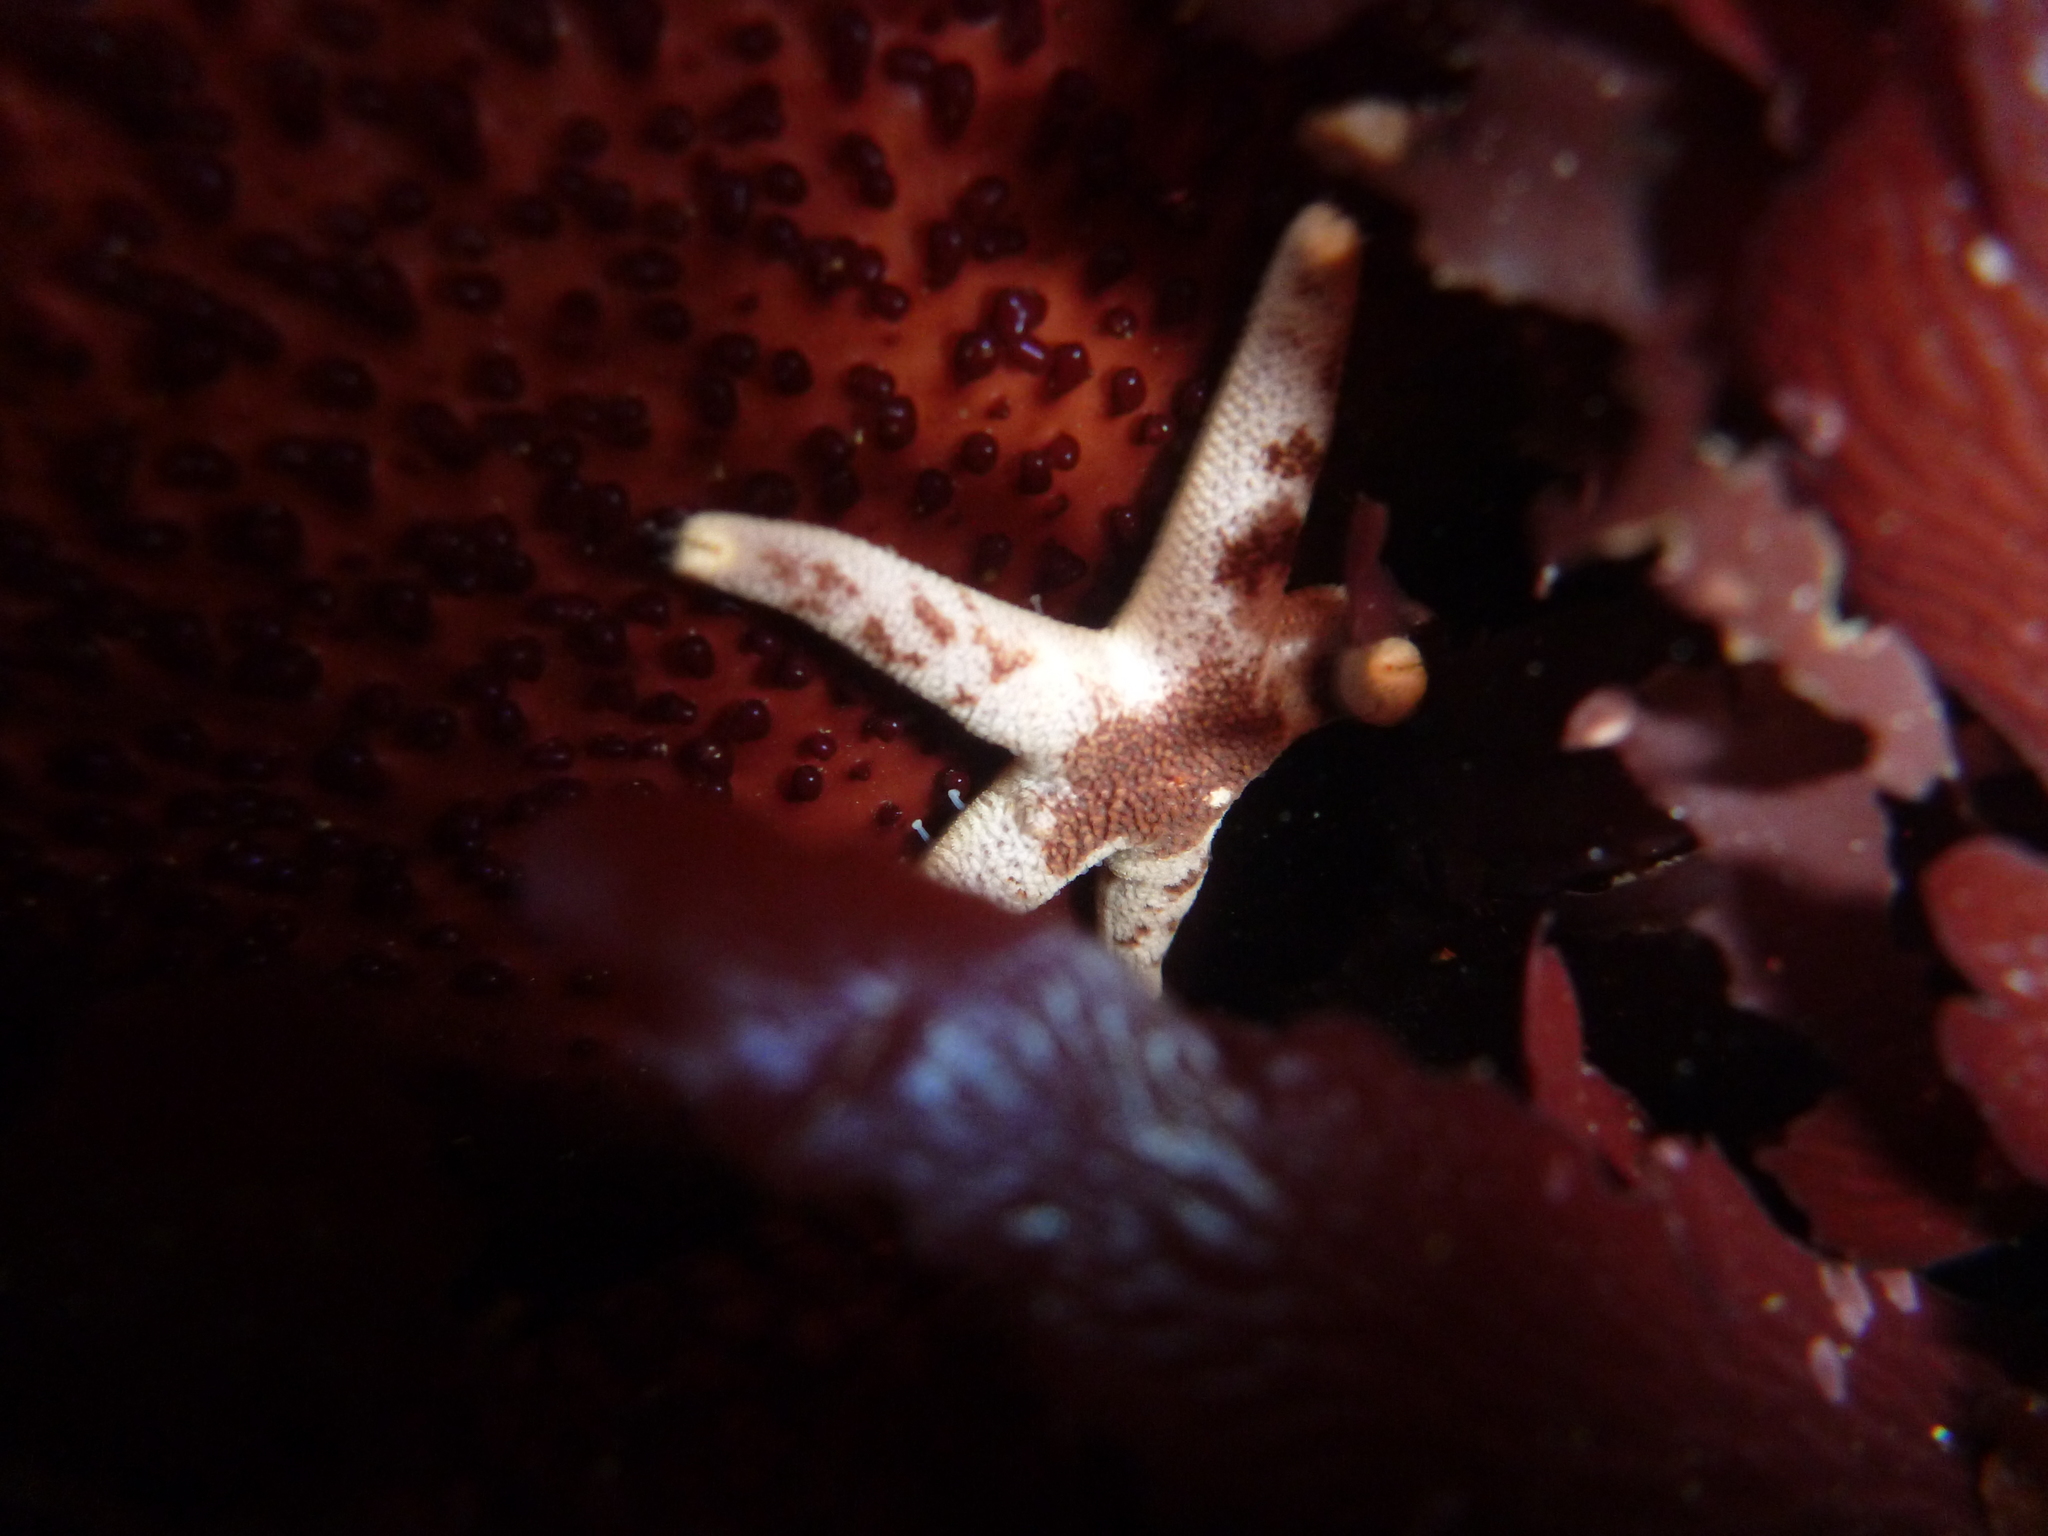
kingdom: Animalia
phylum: Echinodermata
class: Asteroidea
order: Spinulosida
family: Echinasteridae
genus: Henricia
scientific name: Henricia pumila
